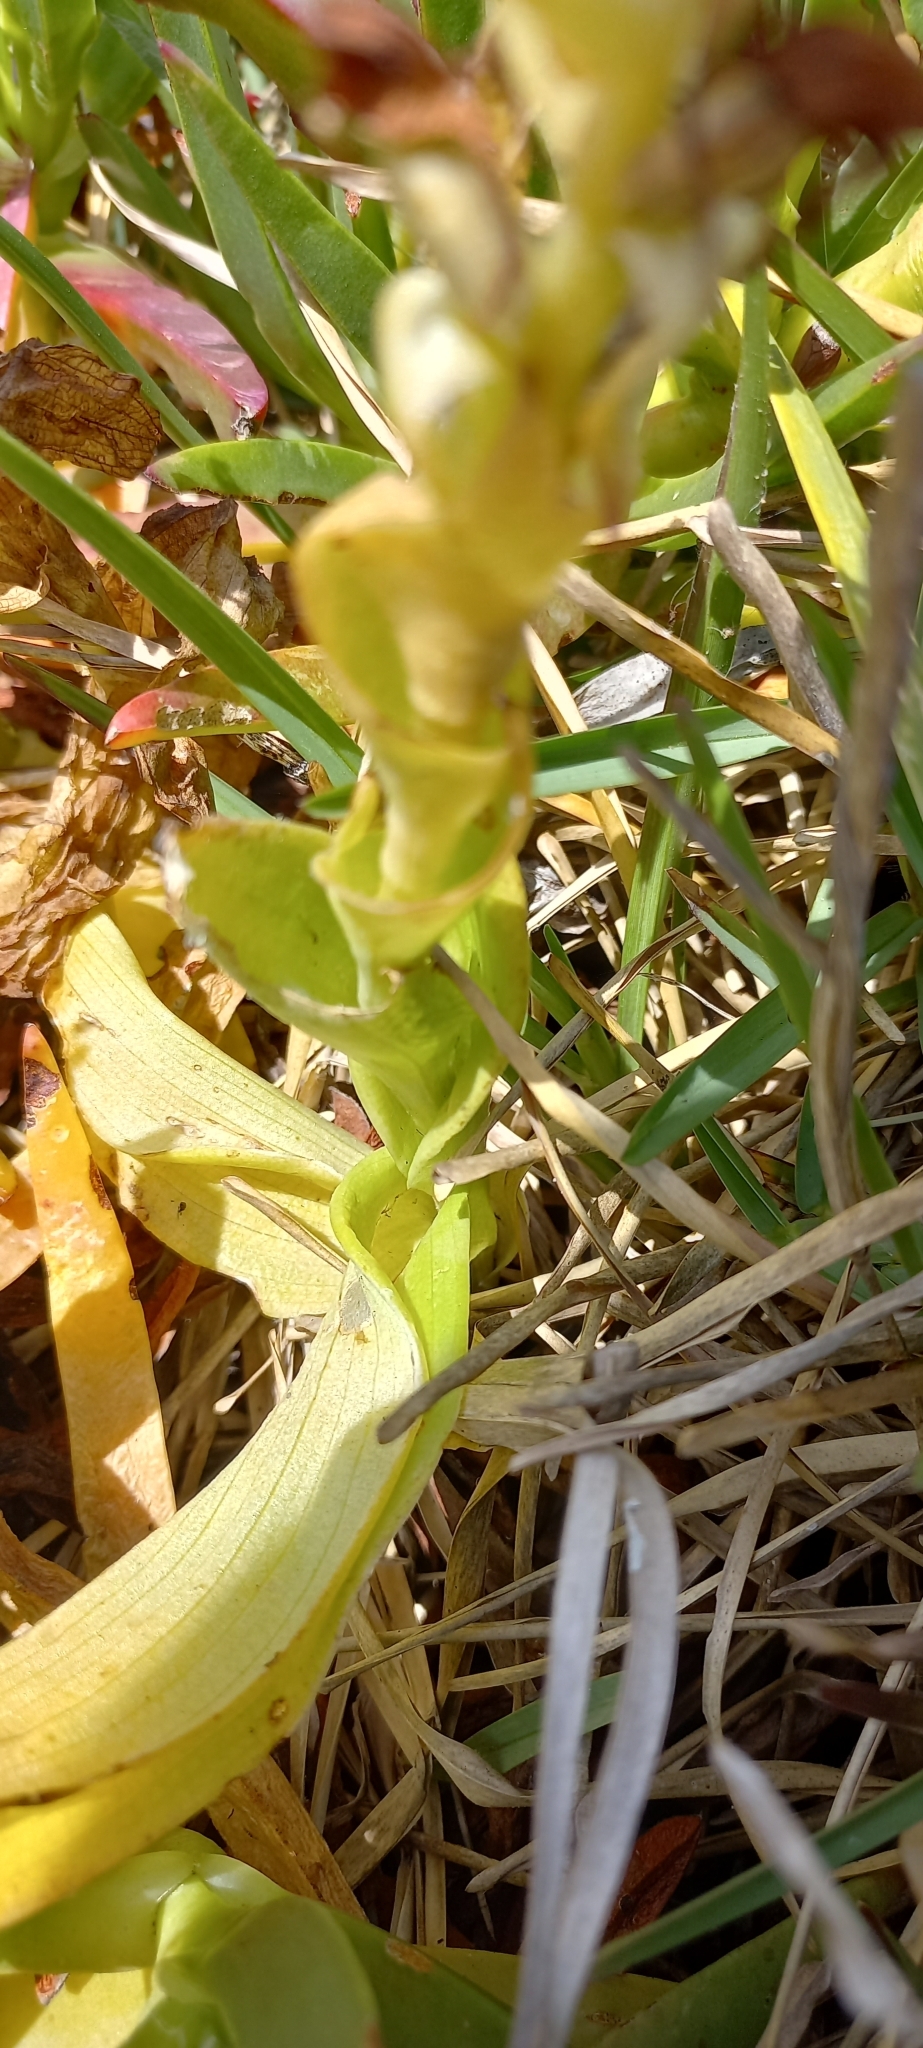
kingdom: Plantae
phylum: Tracheophyta
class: Liliopsida
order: Asparagales
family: Orchidaceae
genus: Satyrium
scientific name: Satyrium odorum
